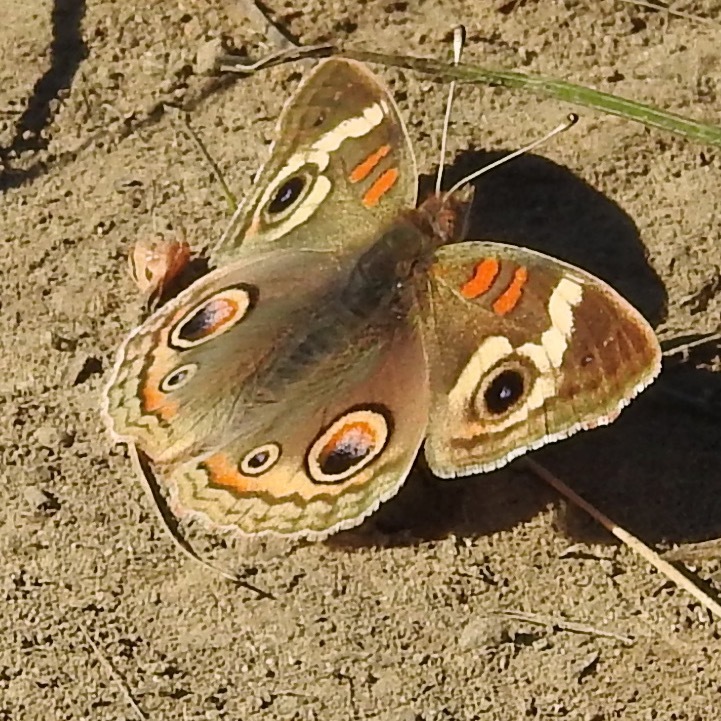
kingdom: Animalia
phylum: Arthropoda
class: Insecta
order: Lepidoptera
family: Nymphalidae
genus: Junonia
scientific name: Junonia grisea
